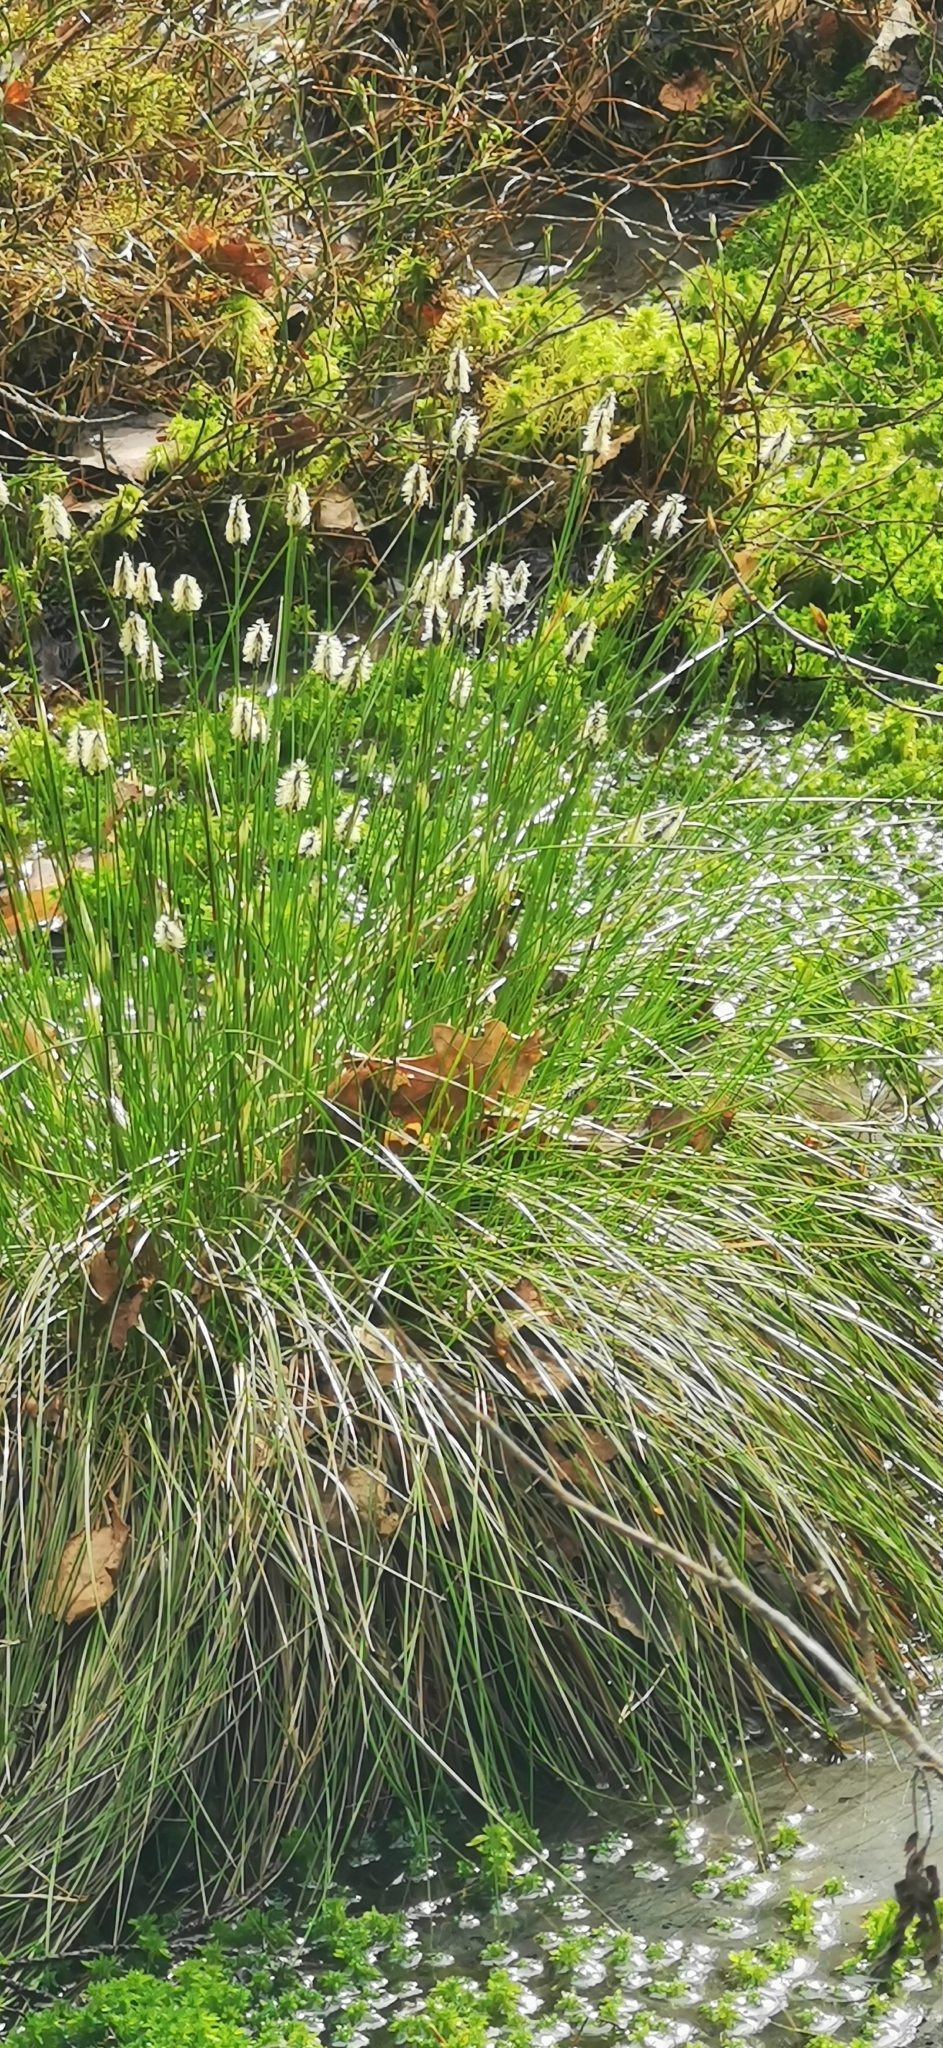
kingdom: Plantae
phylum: Tracheophyta
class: Liliopsida
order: Poales
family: Cyperaceae
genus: Eriophorum
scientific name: Eriophorum vaginatum
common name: Hare's-tail cottongrass
